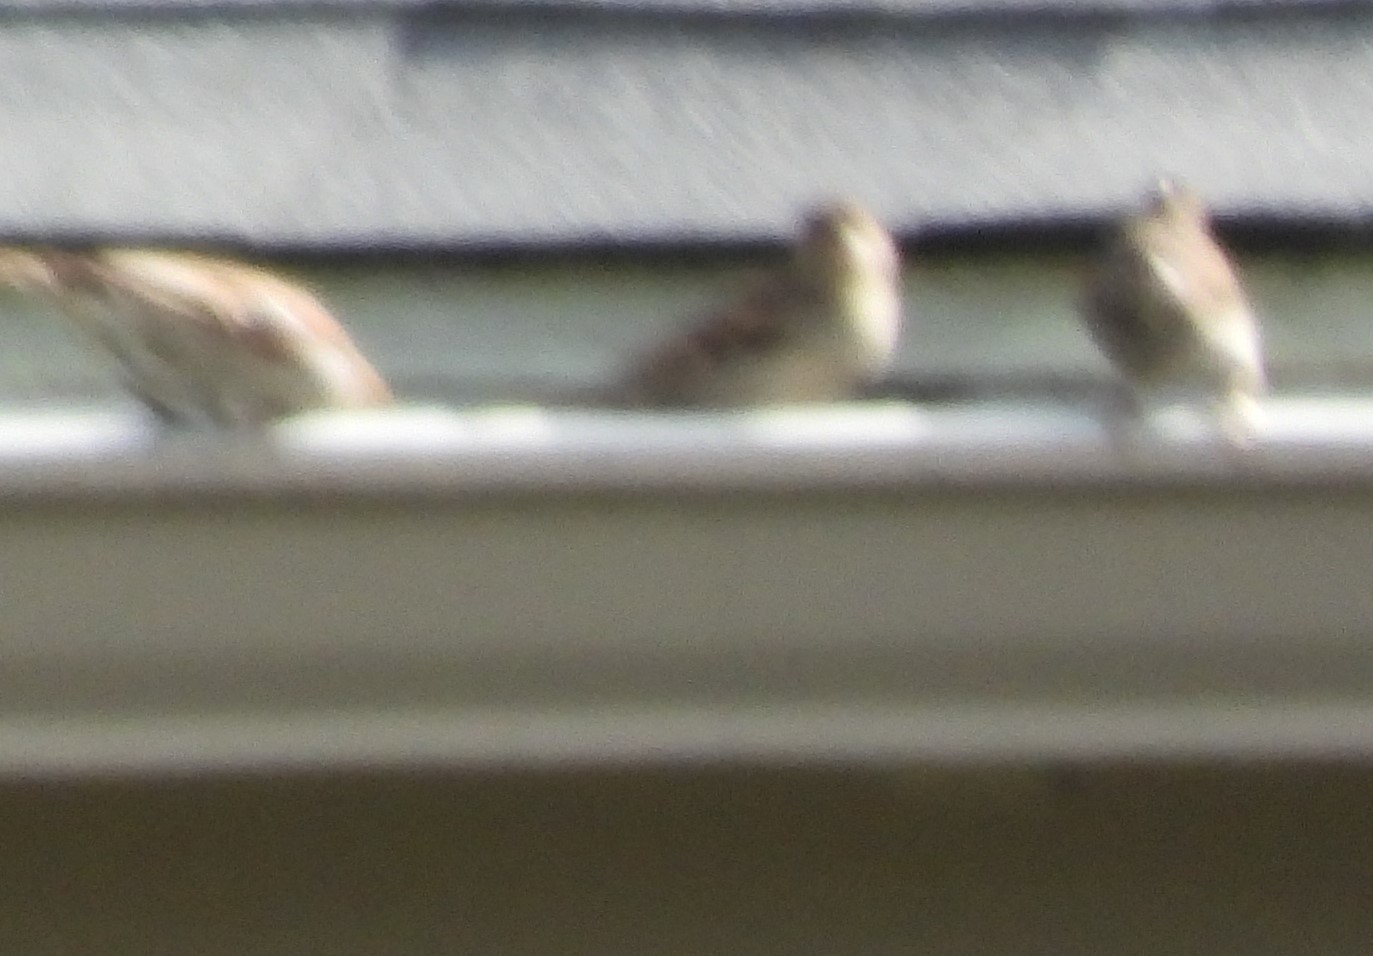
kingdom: Animalia
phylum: Chordata
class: Aves
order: Passeriformes
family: Passeridae
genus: Passer
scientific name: Passer domesticus
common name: House sparrow
